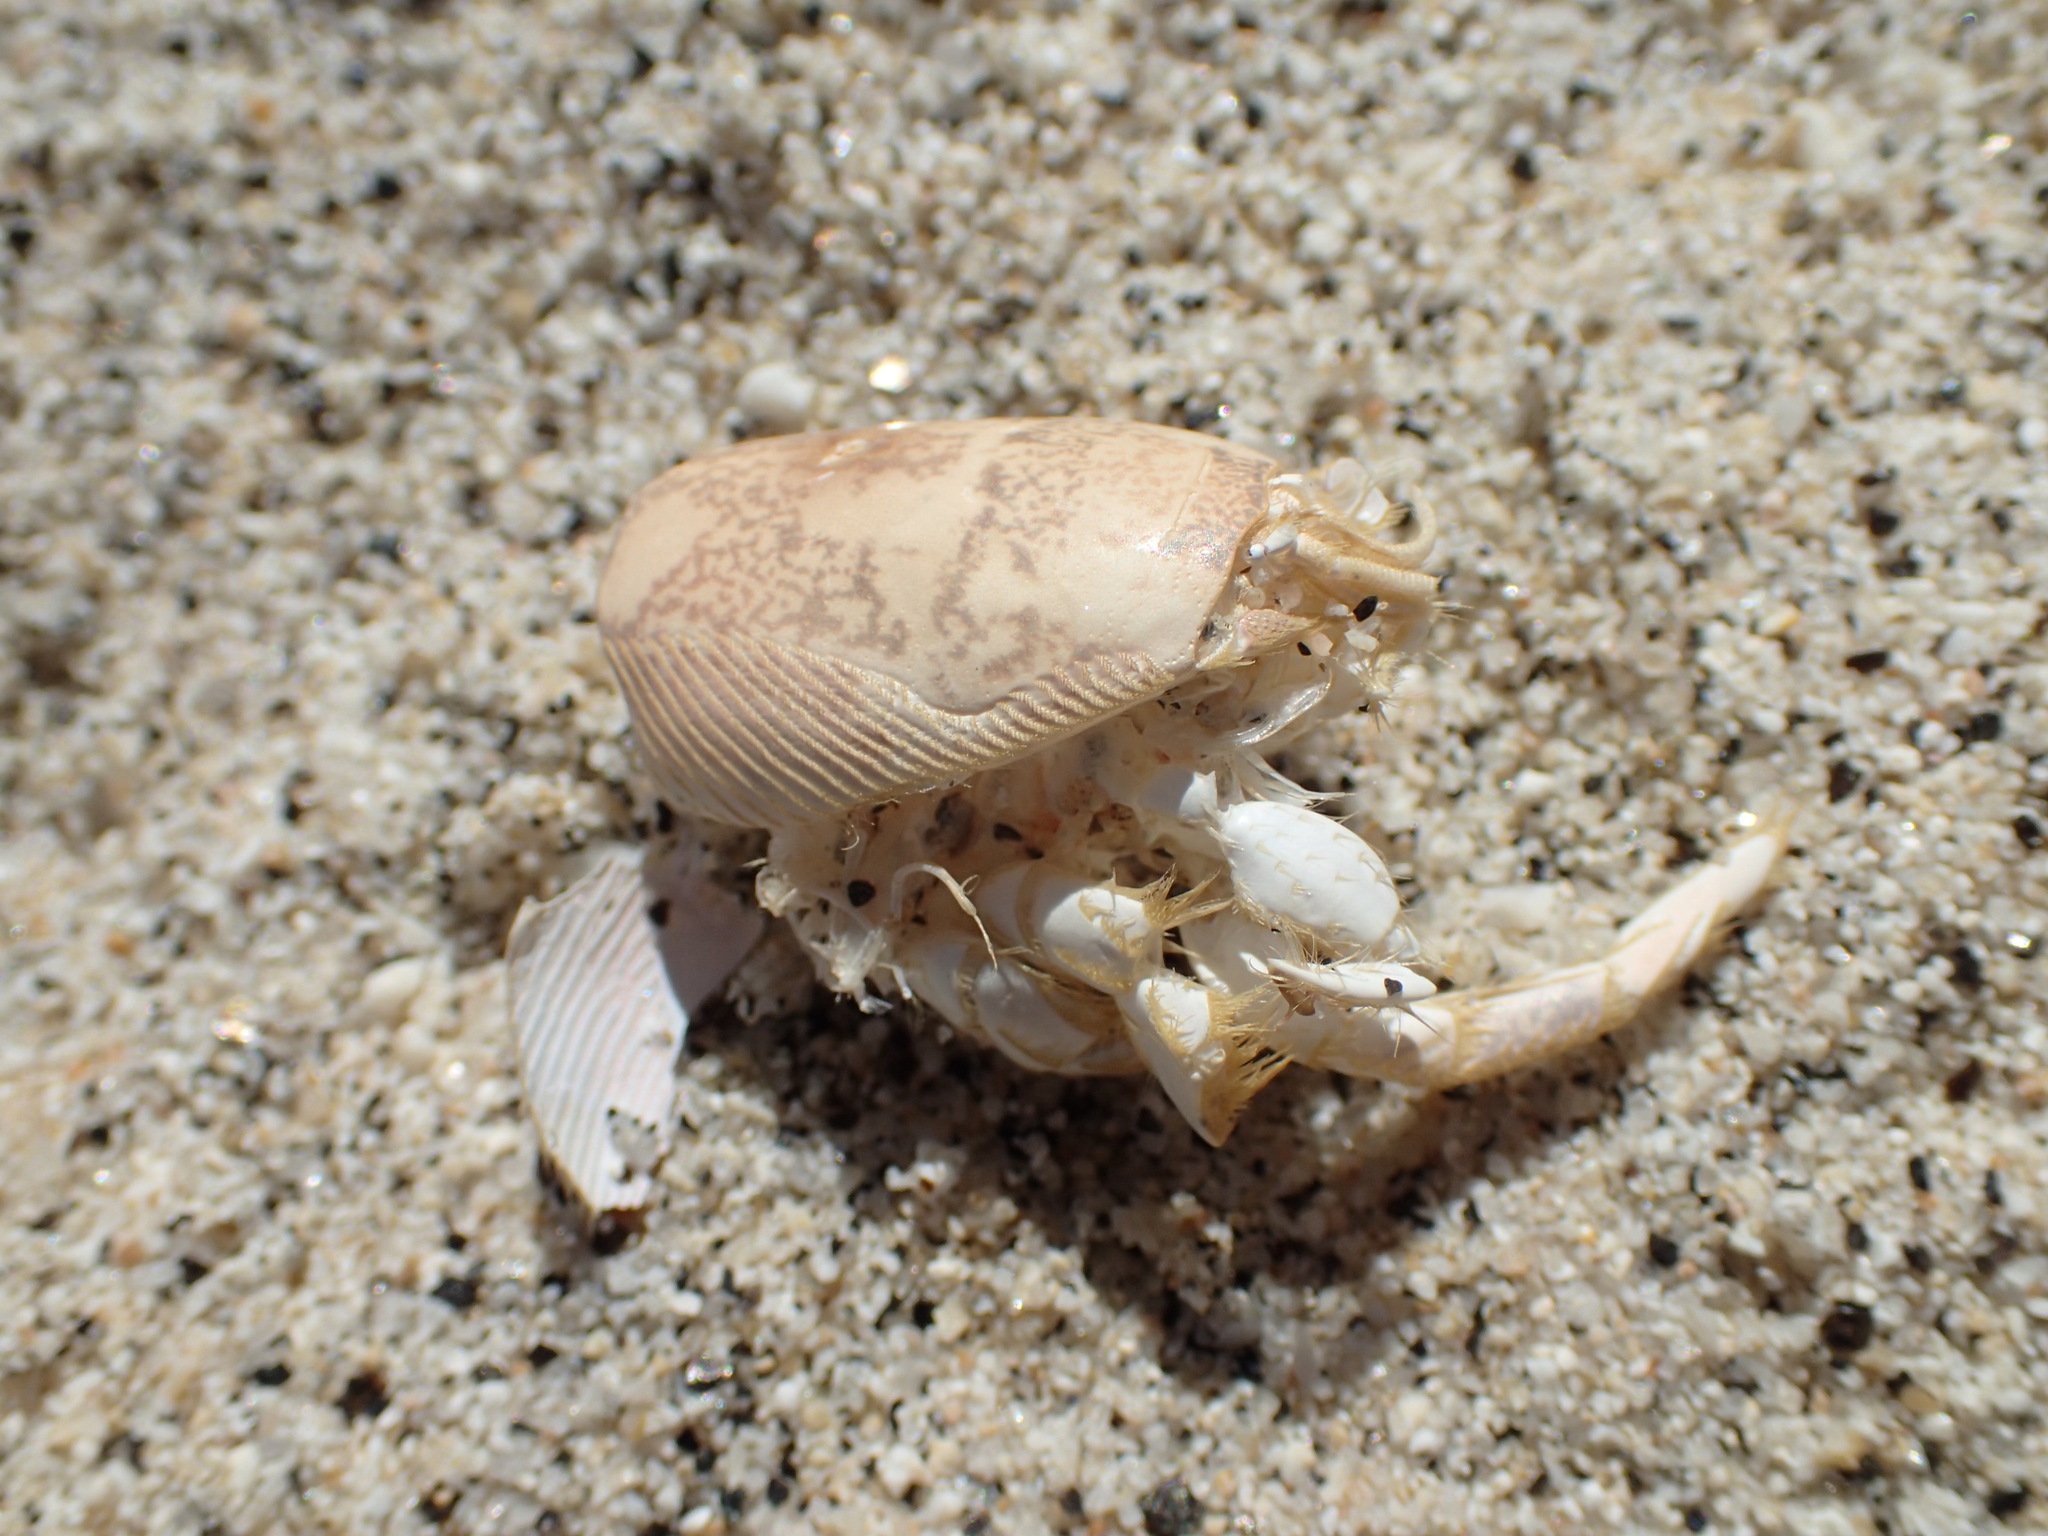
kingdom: Animalia
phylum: Arthropoda
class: Malacostraca
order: Decapoda
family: Hippidae
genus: Hippa
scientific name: Hippa strigillata
